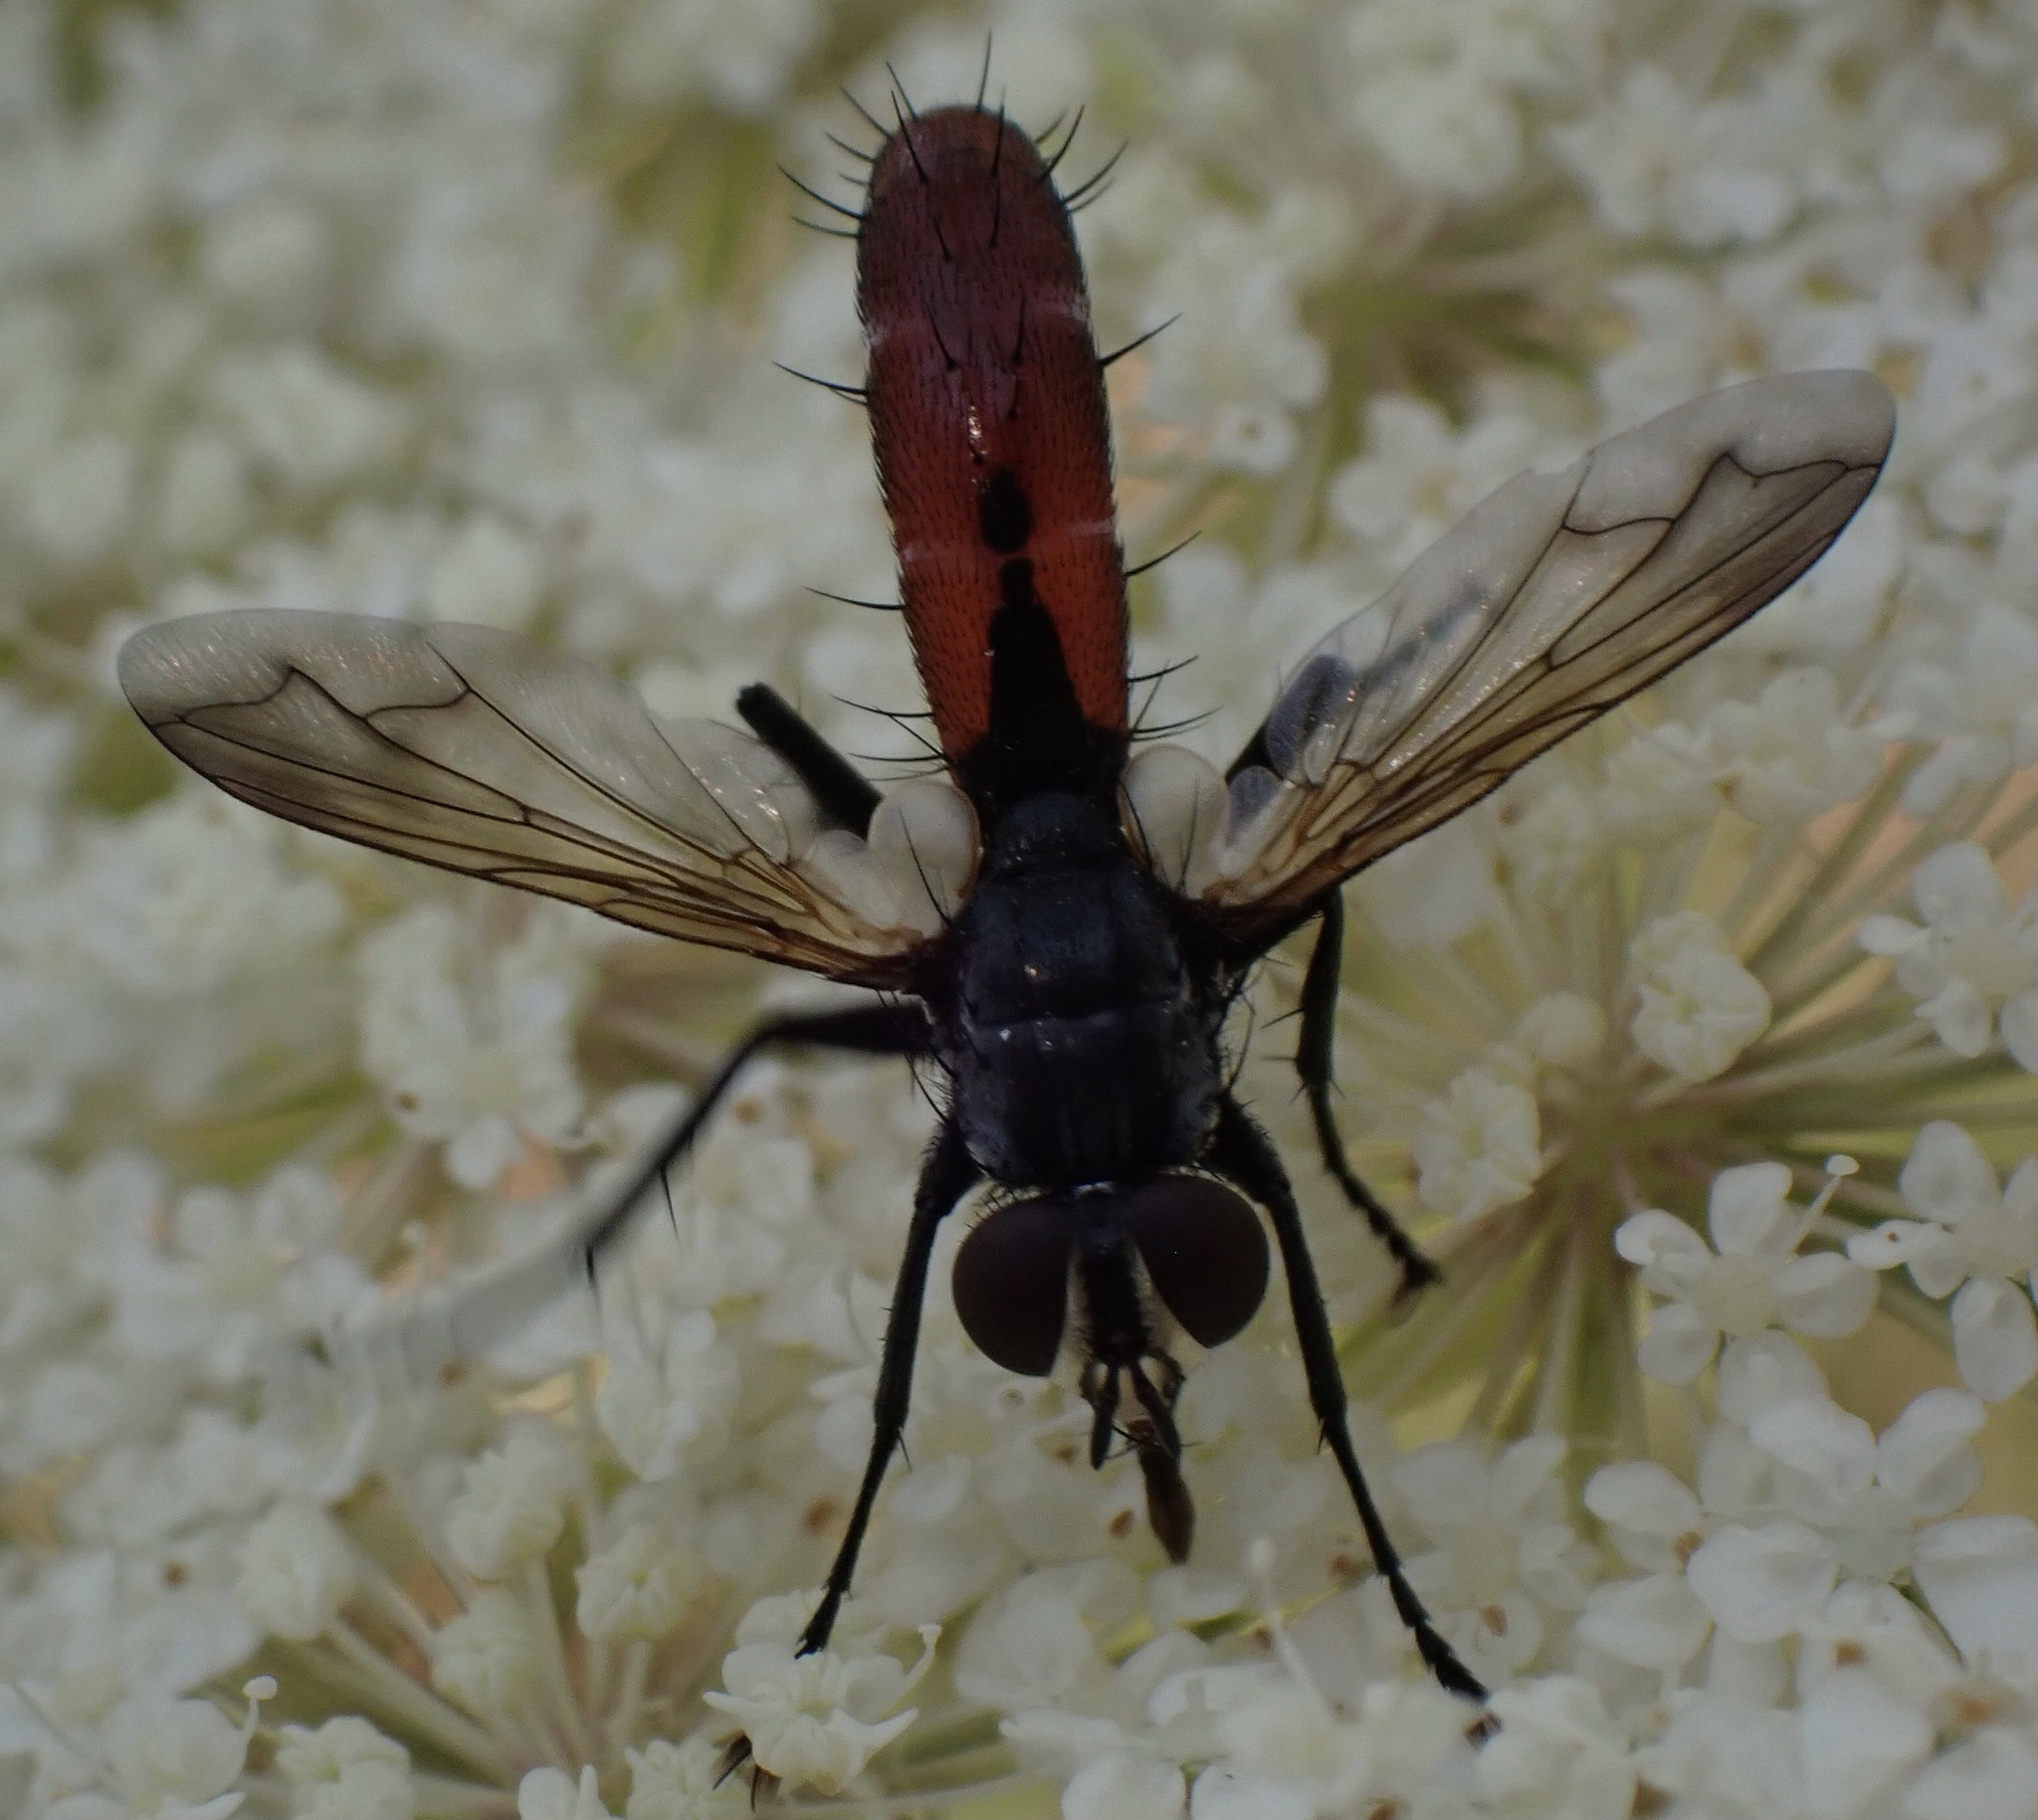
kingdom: Animalia
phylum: Arthropoda
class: Insecta
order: Diptera
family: Tachinidae
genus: Cylindromyia
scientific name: Cylindromyia bicolor
